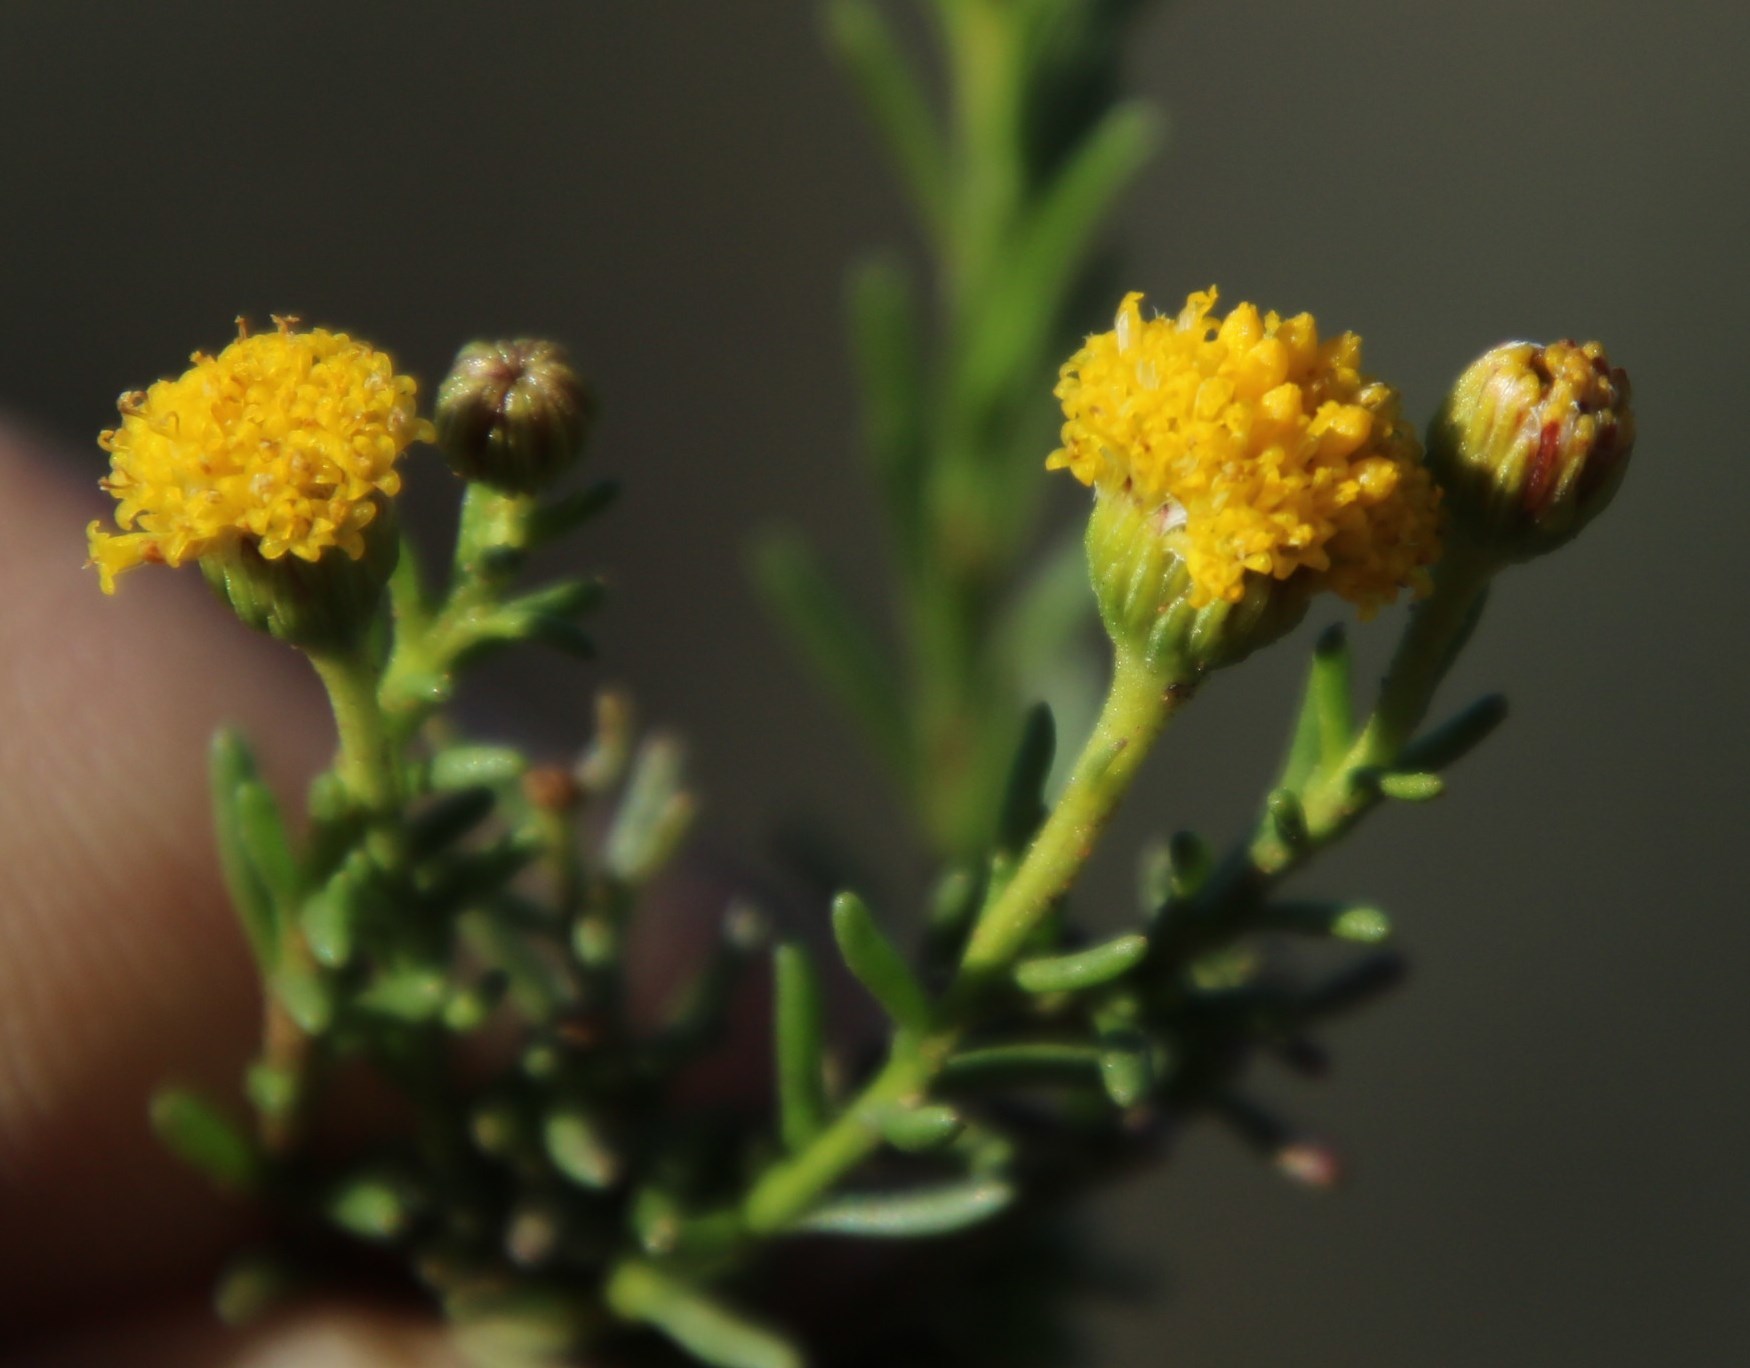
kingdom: Plantae
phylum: Tracheophyta
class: Magnoliopsida
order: Asterales
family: Asteraceae
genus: Chrysocoma
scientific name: Chrysocoma ciliata
